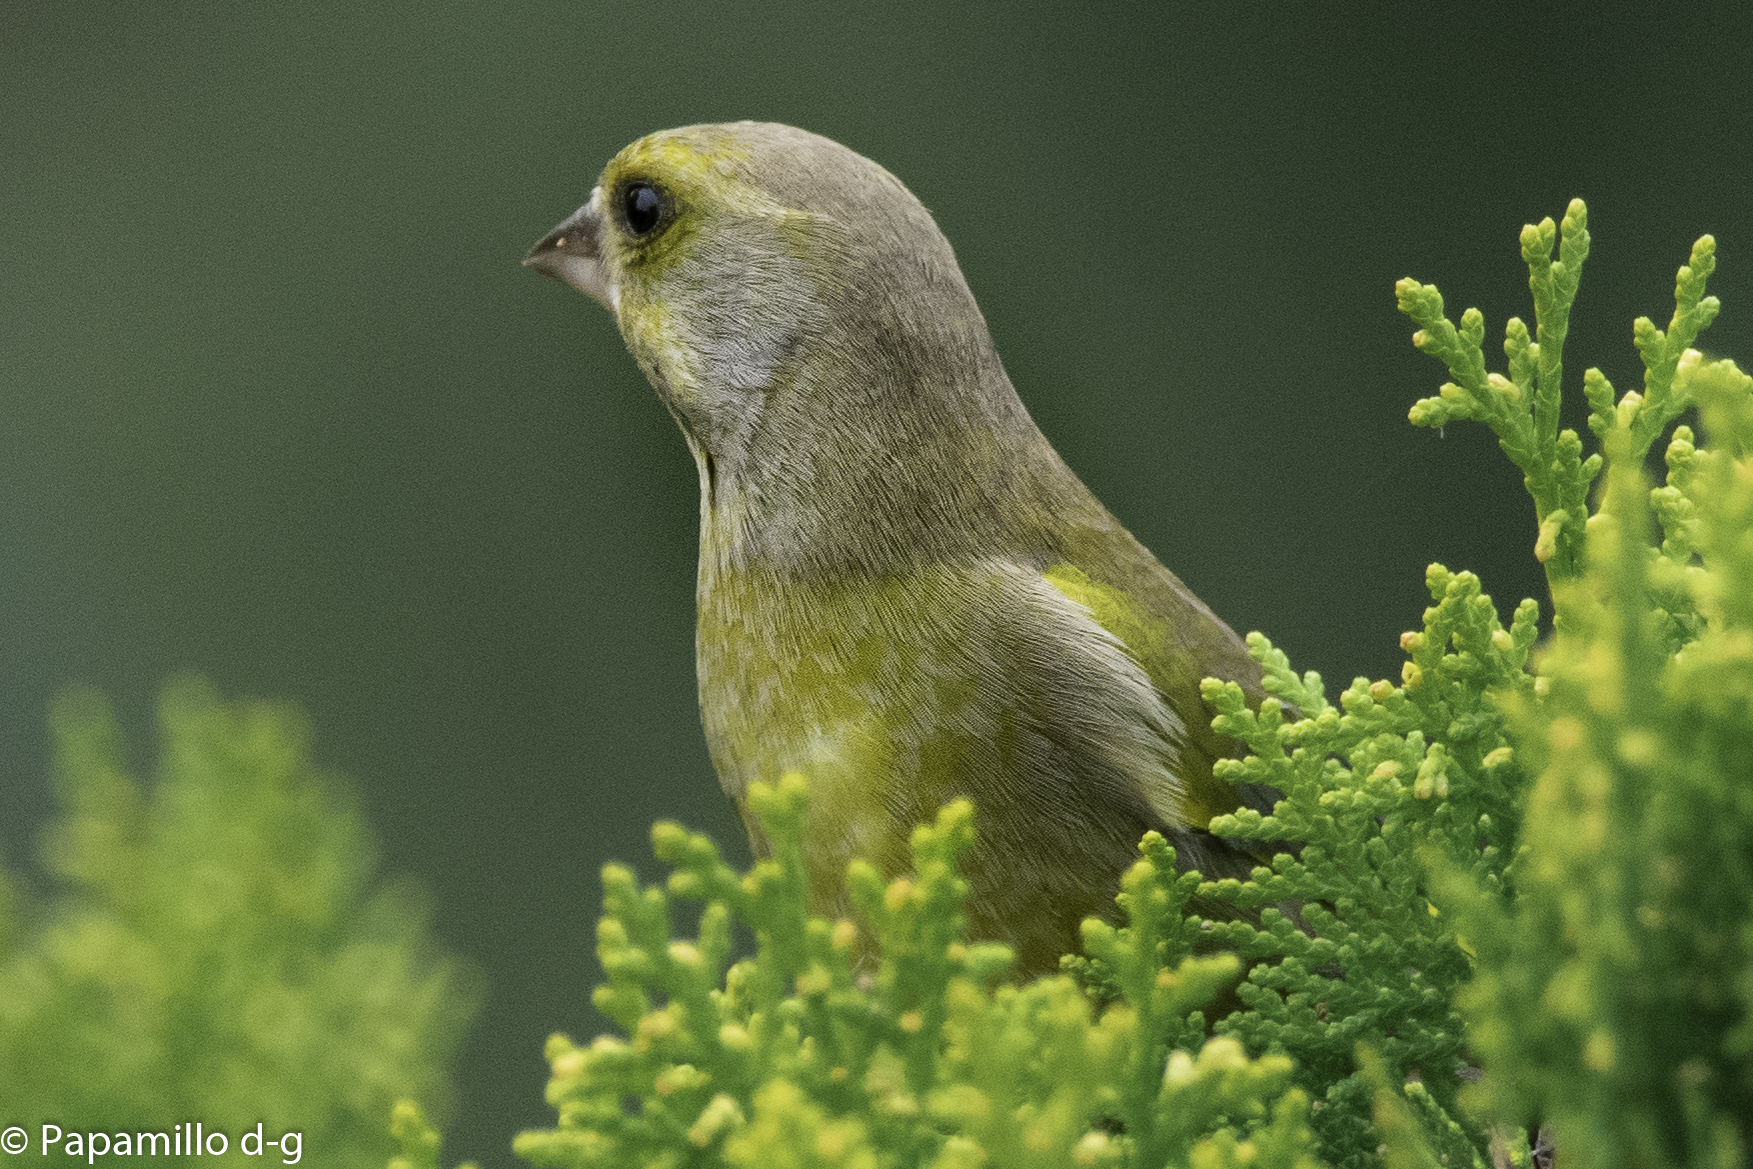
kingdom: Plantae
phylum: Tracheophyta
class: Liliopsida
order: Poales
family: Poaceae
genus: Chloris
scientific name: Chloris chloris
